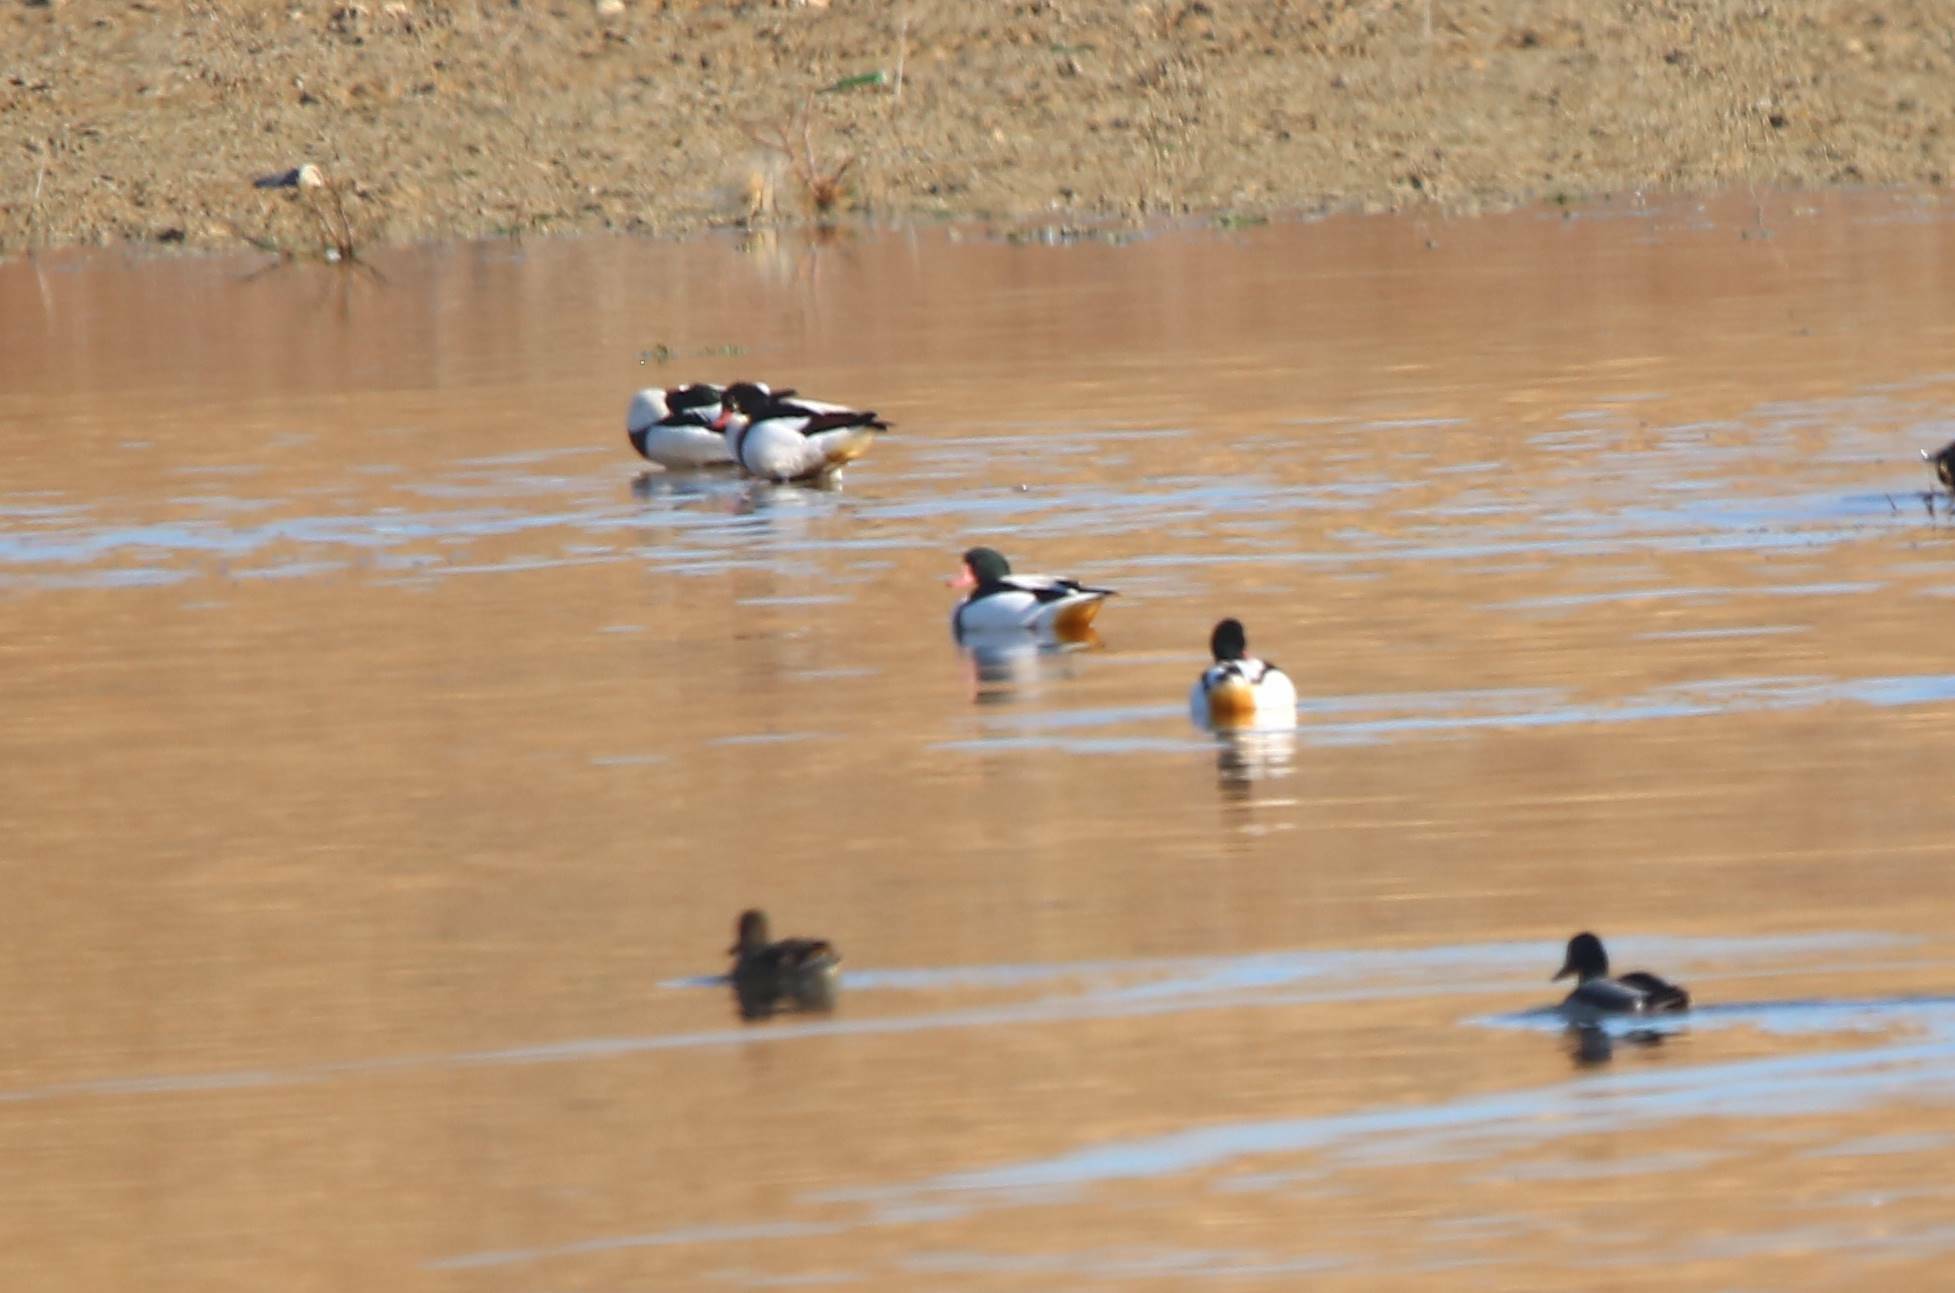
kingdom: Animalia
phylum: Chordata
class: Aves
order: Anseriformes
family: Anatidae
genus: Tadorna
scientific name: Tadorna tadorna
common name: Common shelduck
